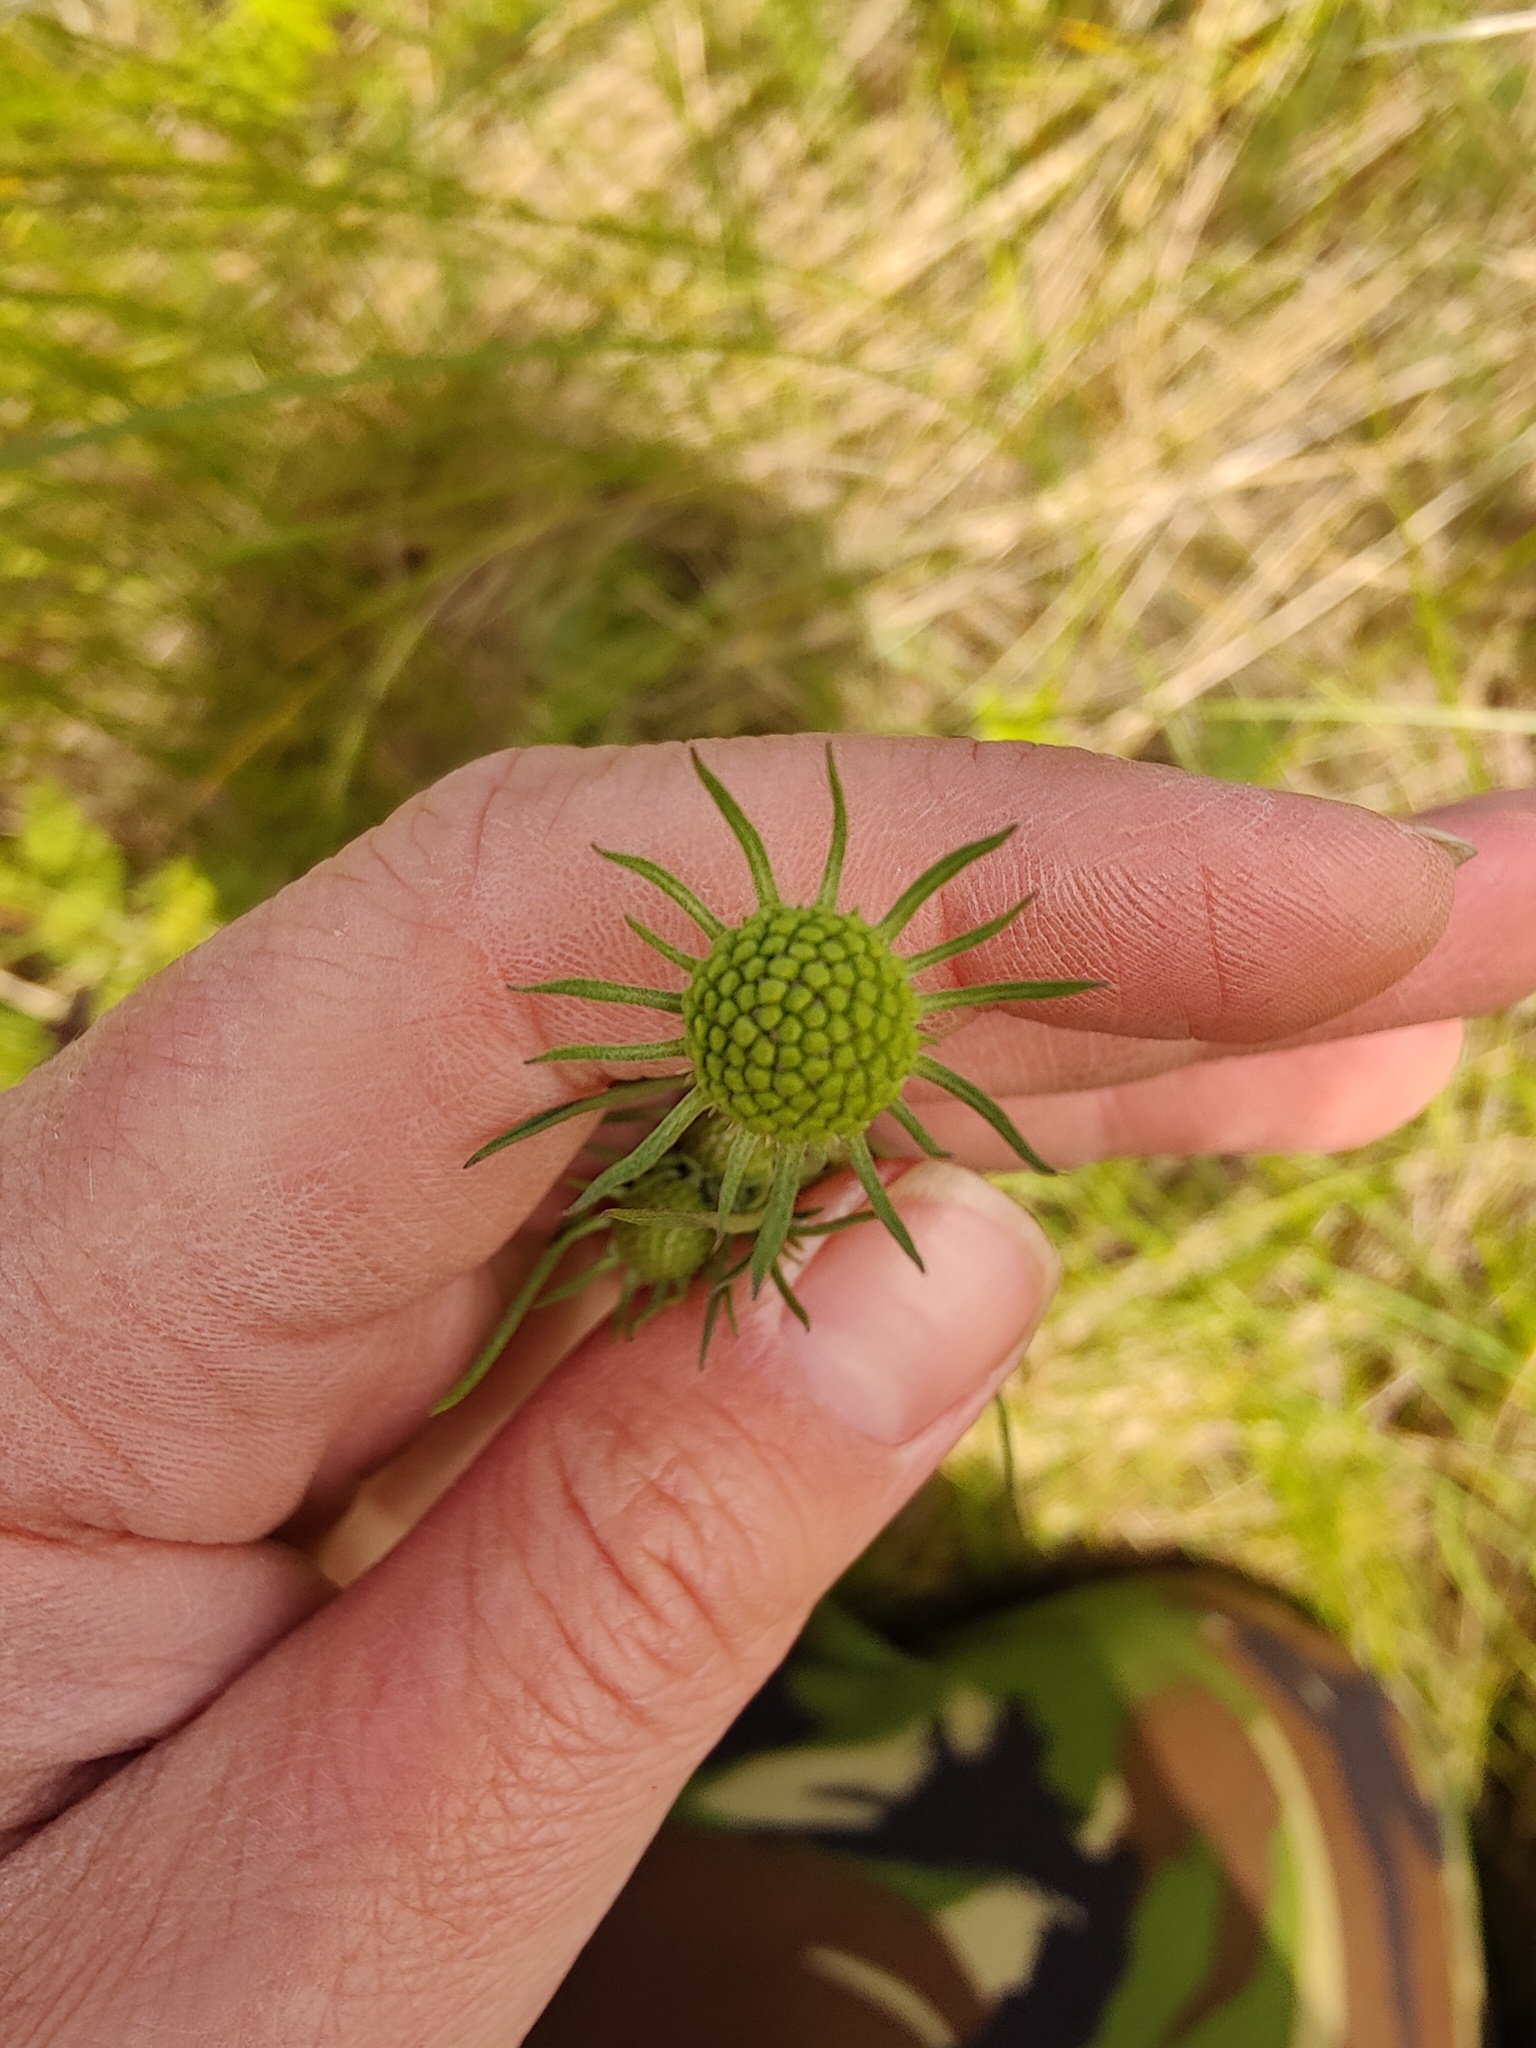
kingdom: Plantae
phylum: Tracheophyta
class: Magnoliopsida
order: Dipsacales
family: Caprifoliaceae
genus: Scabiosa
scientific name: Scabiosa ochroleuca
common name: Cream pincushions
